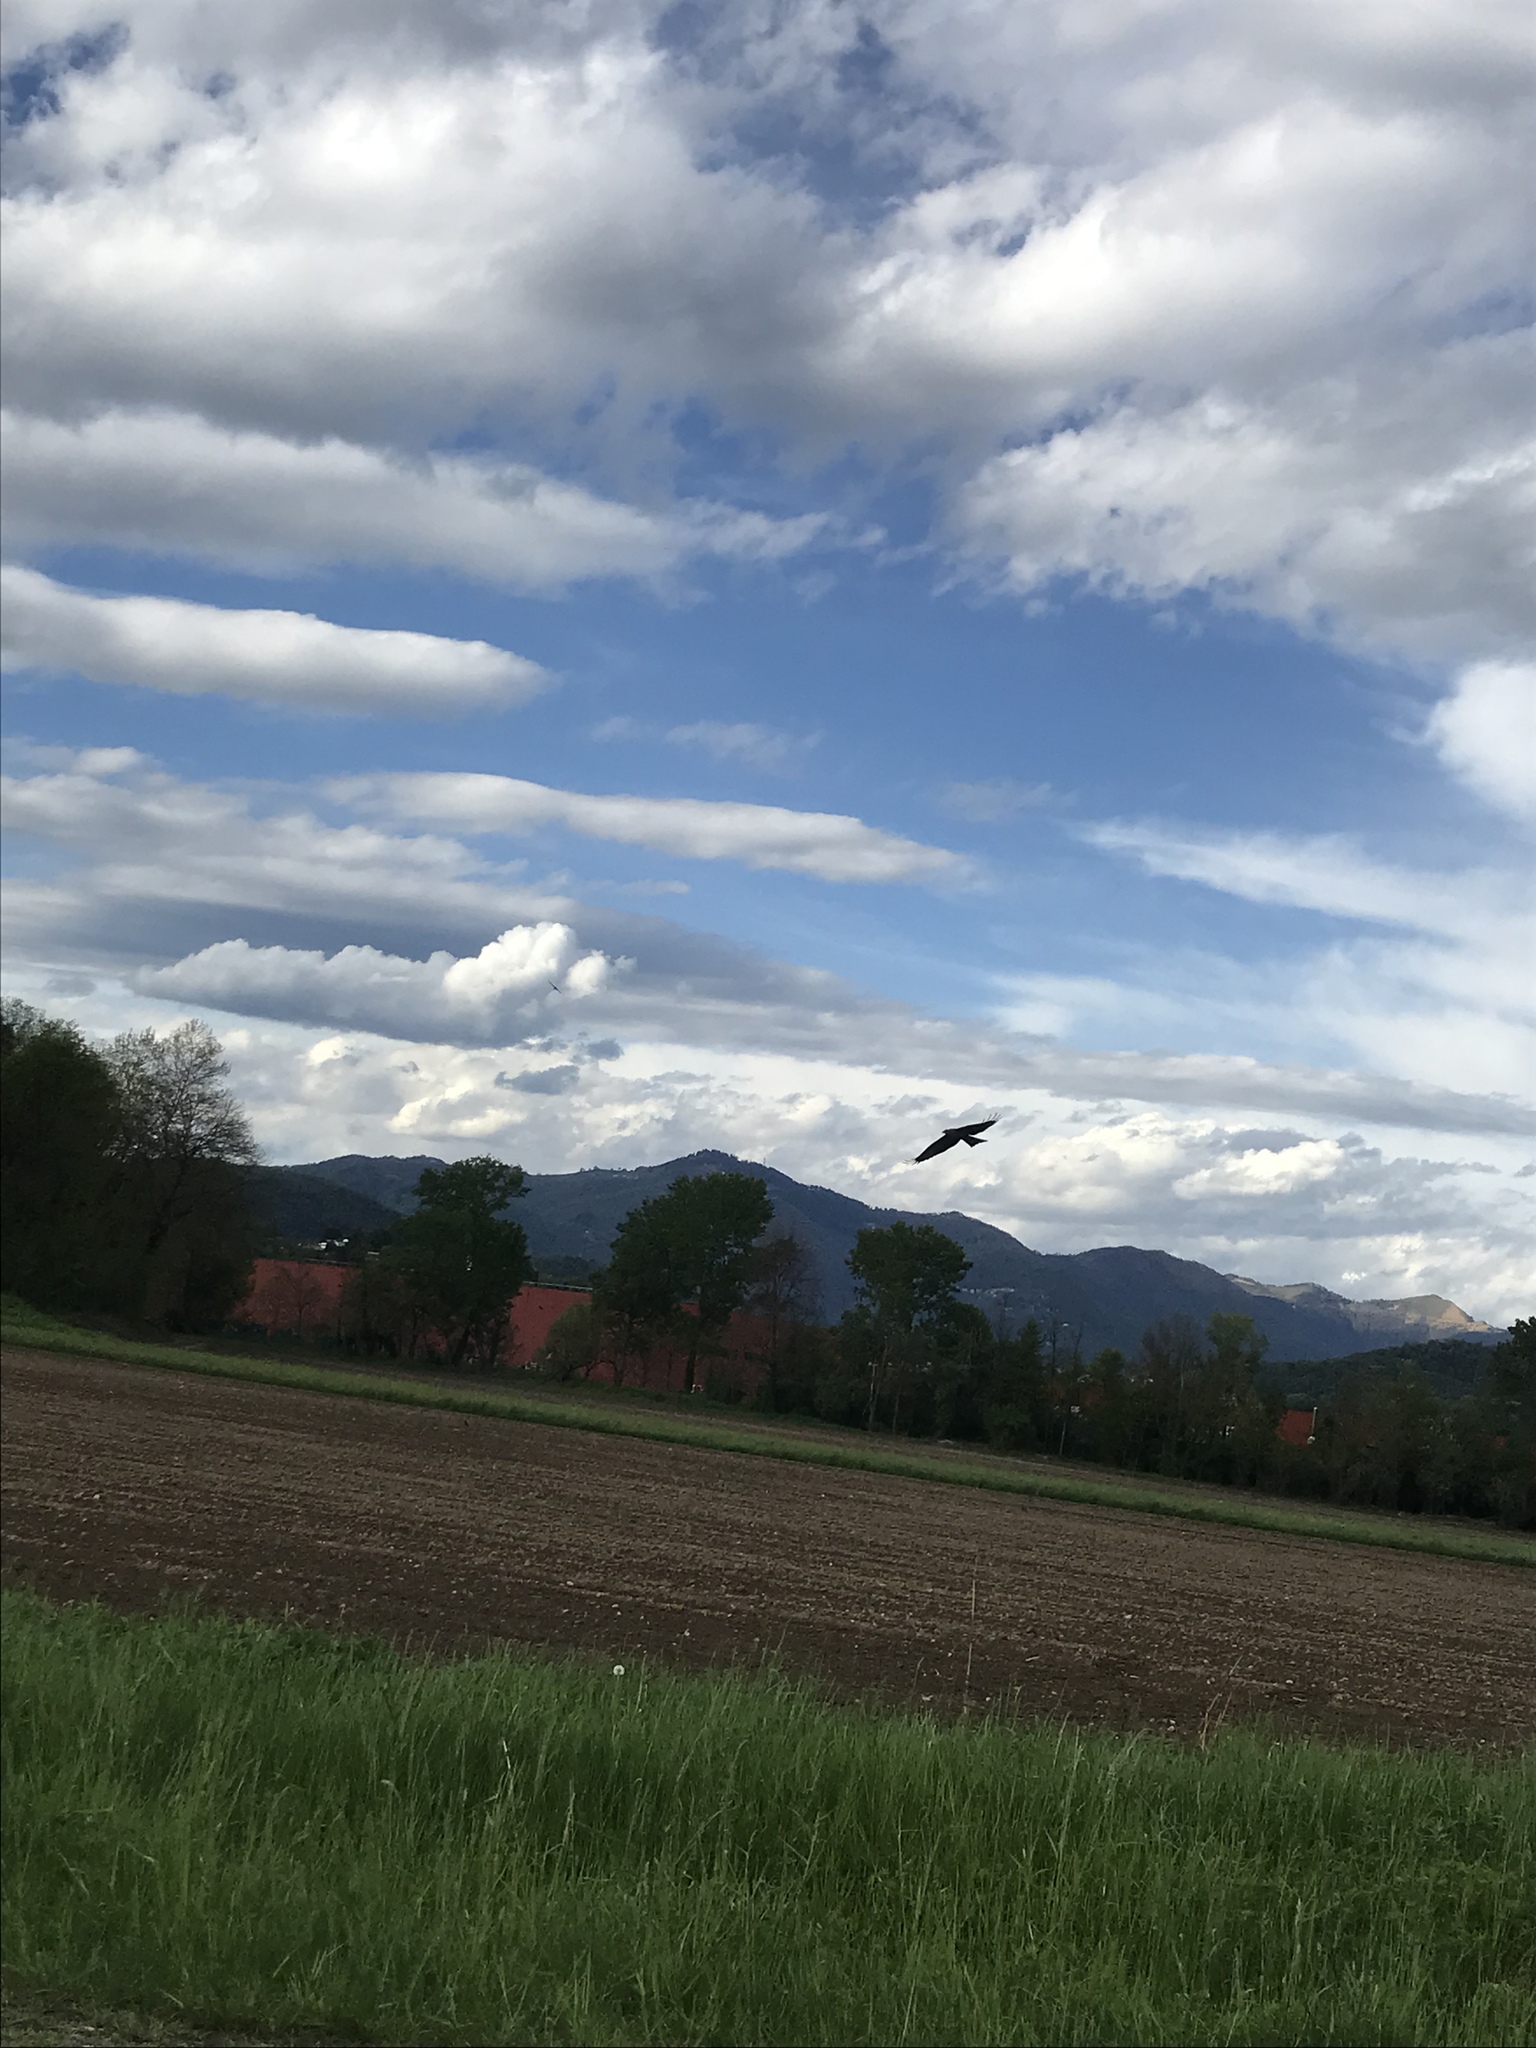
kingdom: Animalia
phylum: Chordata
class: Aves
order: Accipitriformes
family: Accipitridae
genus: Milvus
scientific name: Milvus migrans
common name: Black kite
